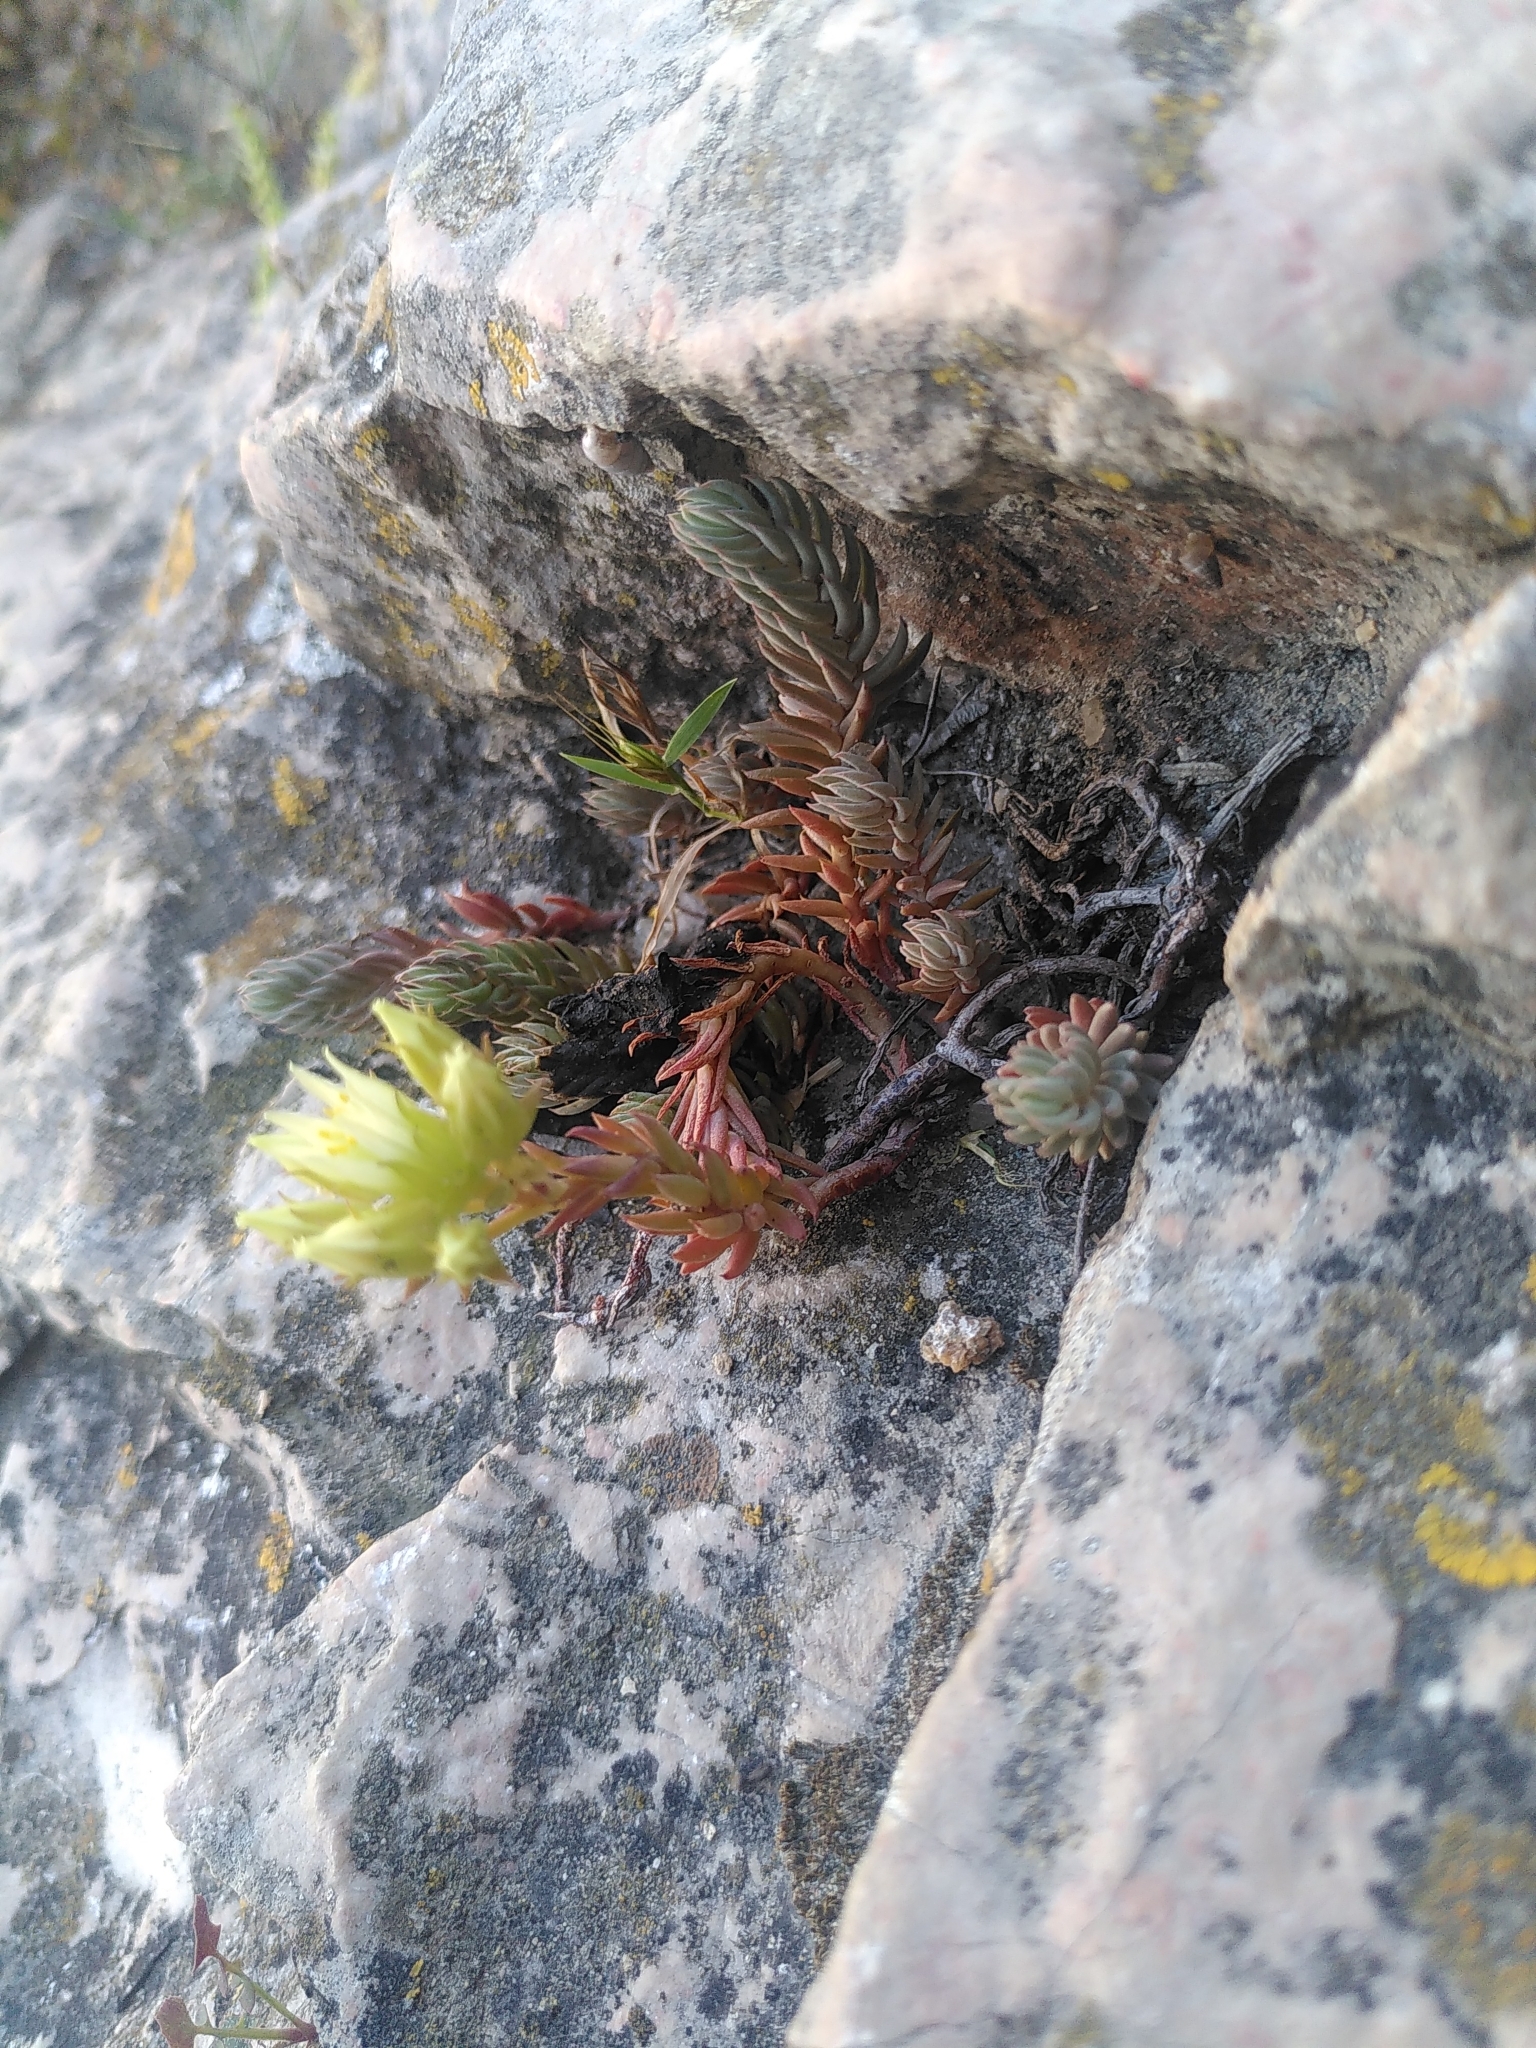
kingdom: Plantae
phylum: Tracheophyta
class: Magnoliopsida
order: Saxifragales
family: Crassulaceae
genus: Petrosedum
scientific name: Petrosedum ochroleucum
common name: European stonecrop
